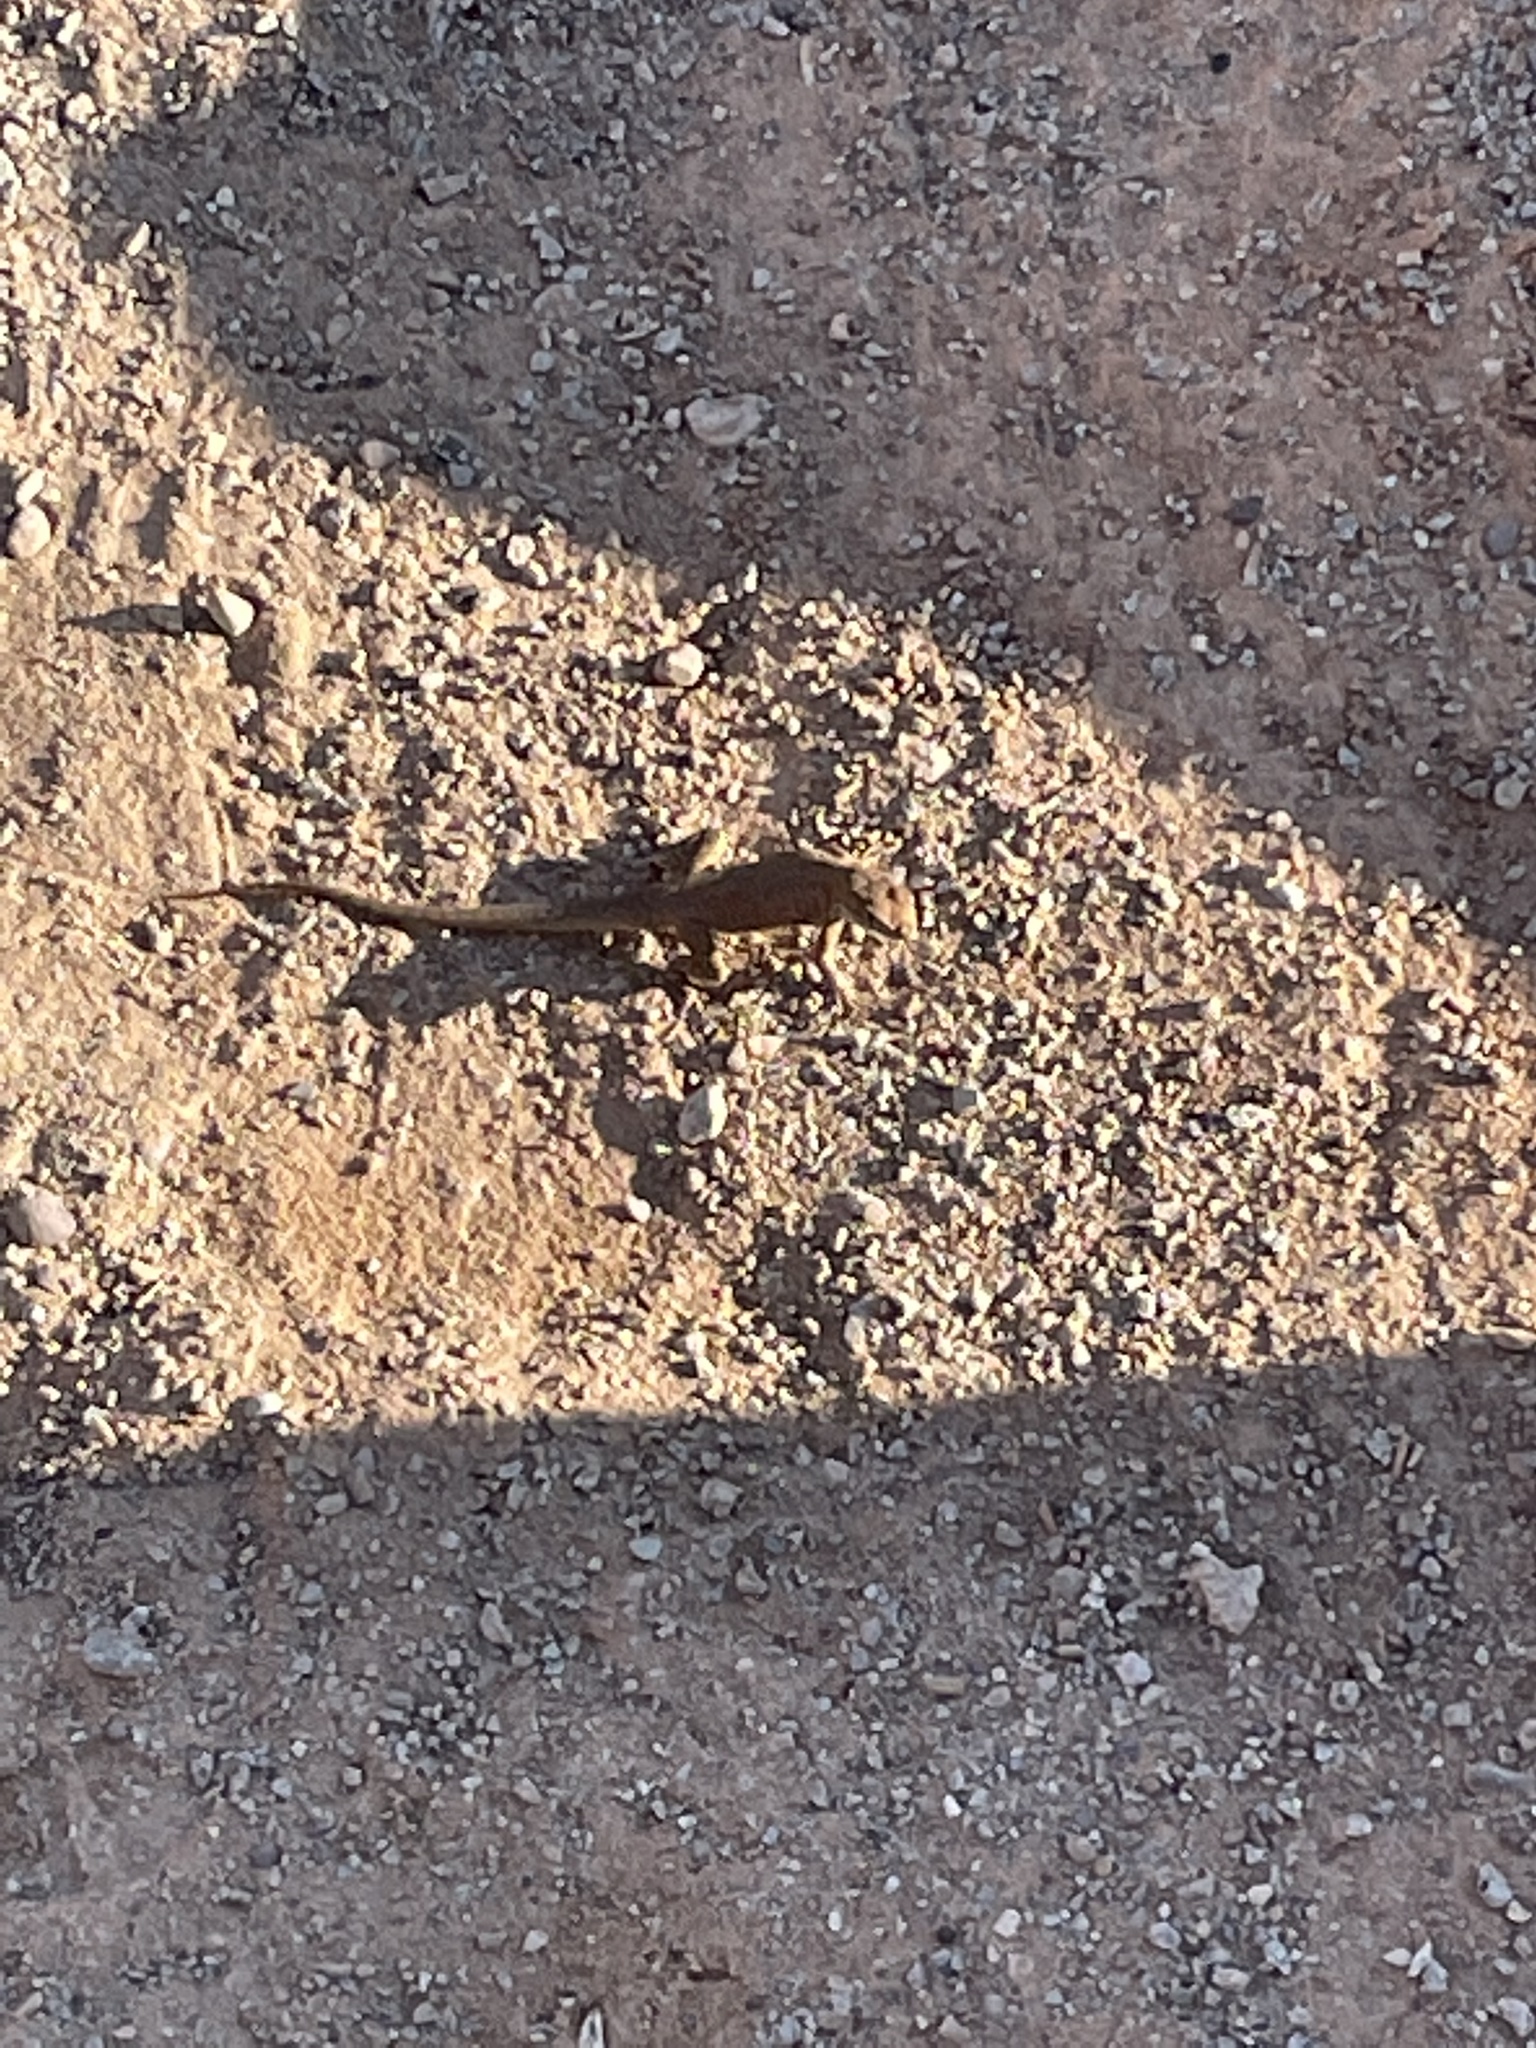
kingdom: Animalia
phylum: Chordata
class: Squamata
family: Phrynosomatidae
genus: Uta
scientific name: Uta stansburiana
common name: Side-blotched lizard
